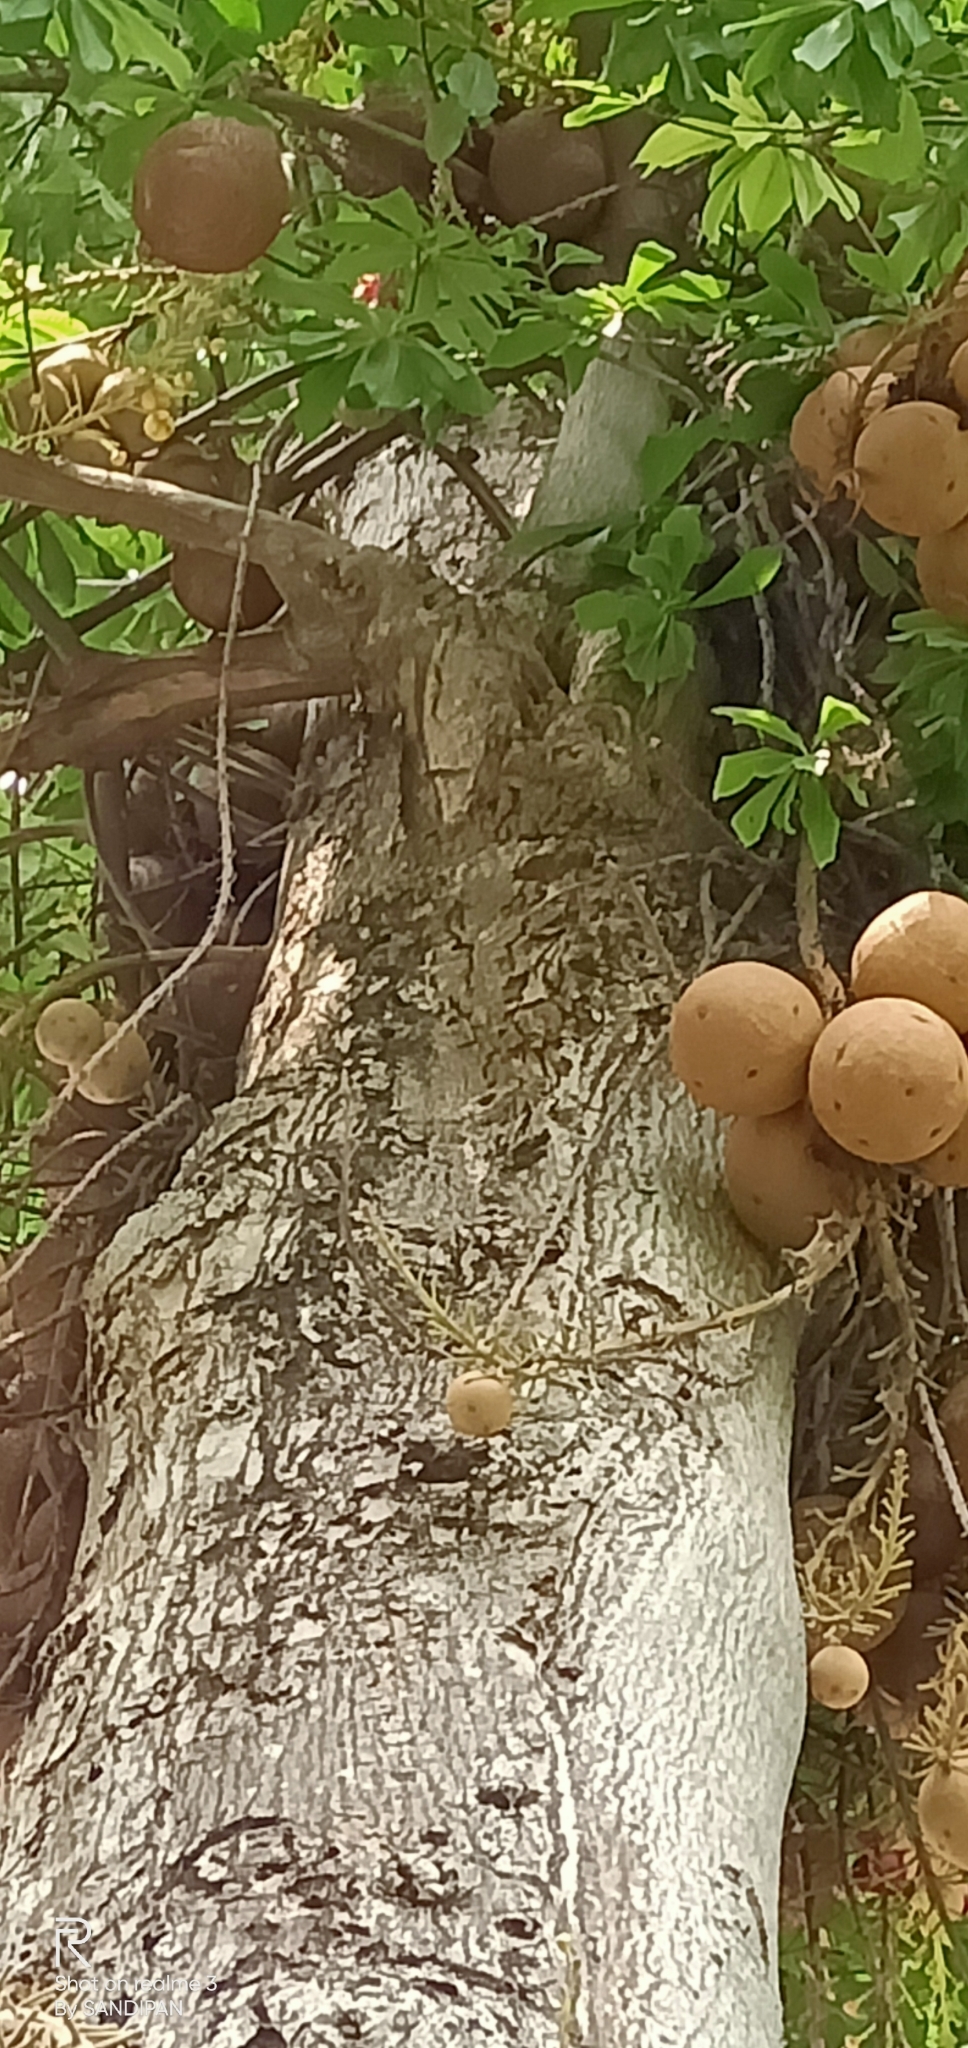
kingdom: Plantae
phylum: Tracheophyta
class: Magnoliopsida
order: Ericales
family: Lecythidaceae
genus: Couroupita
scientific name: Couroupita guianensis
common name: Cannonball tree
